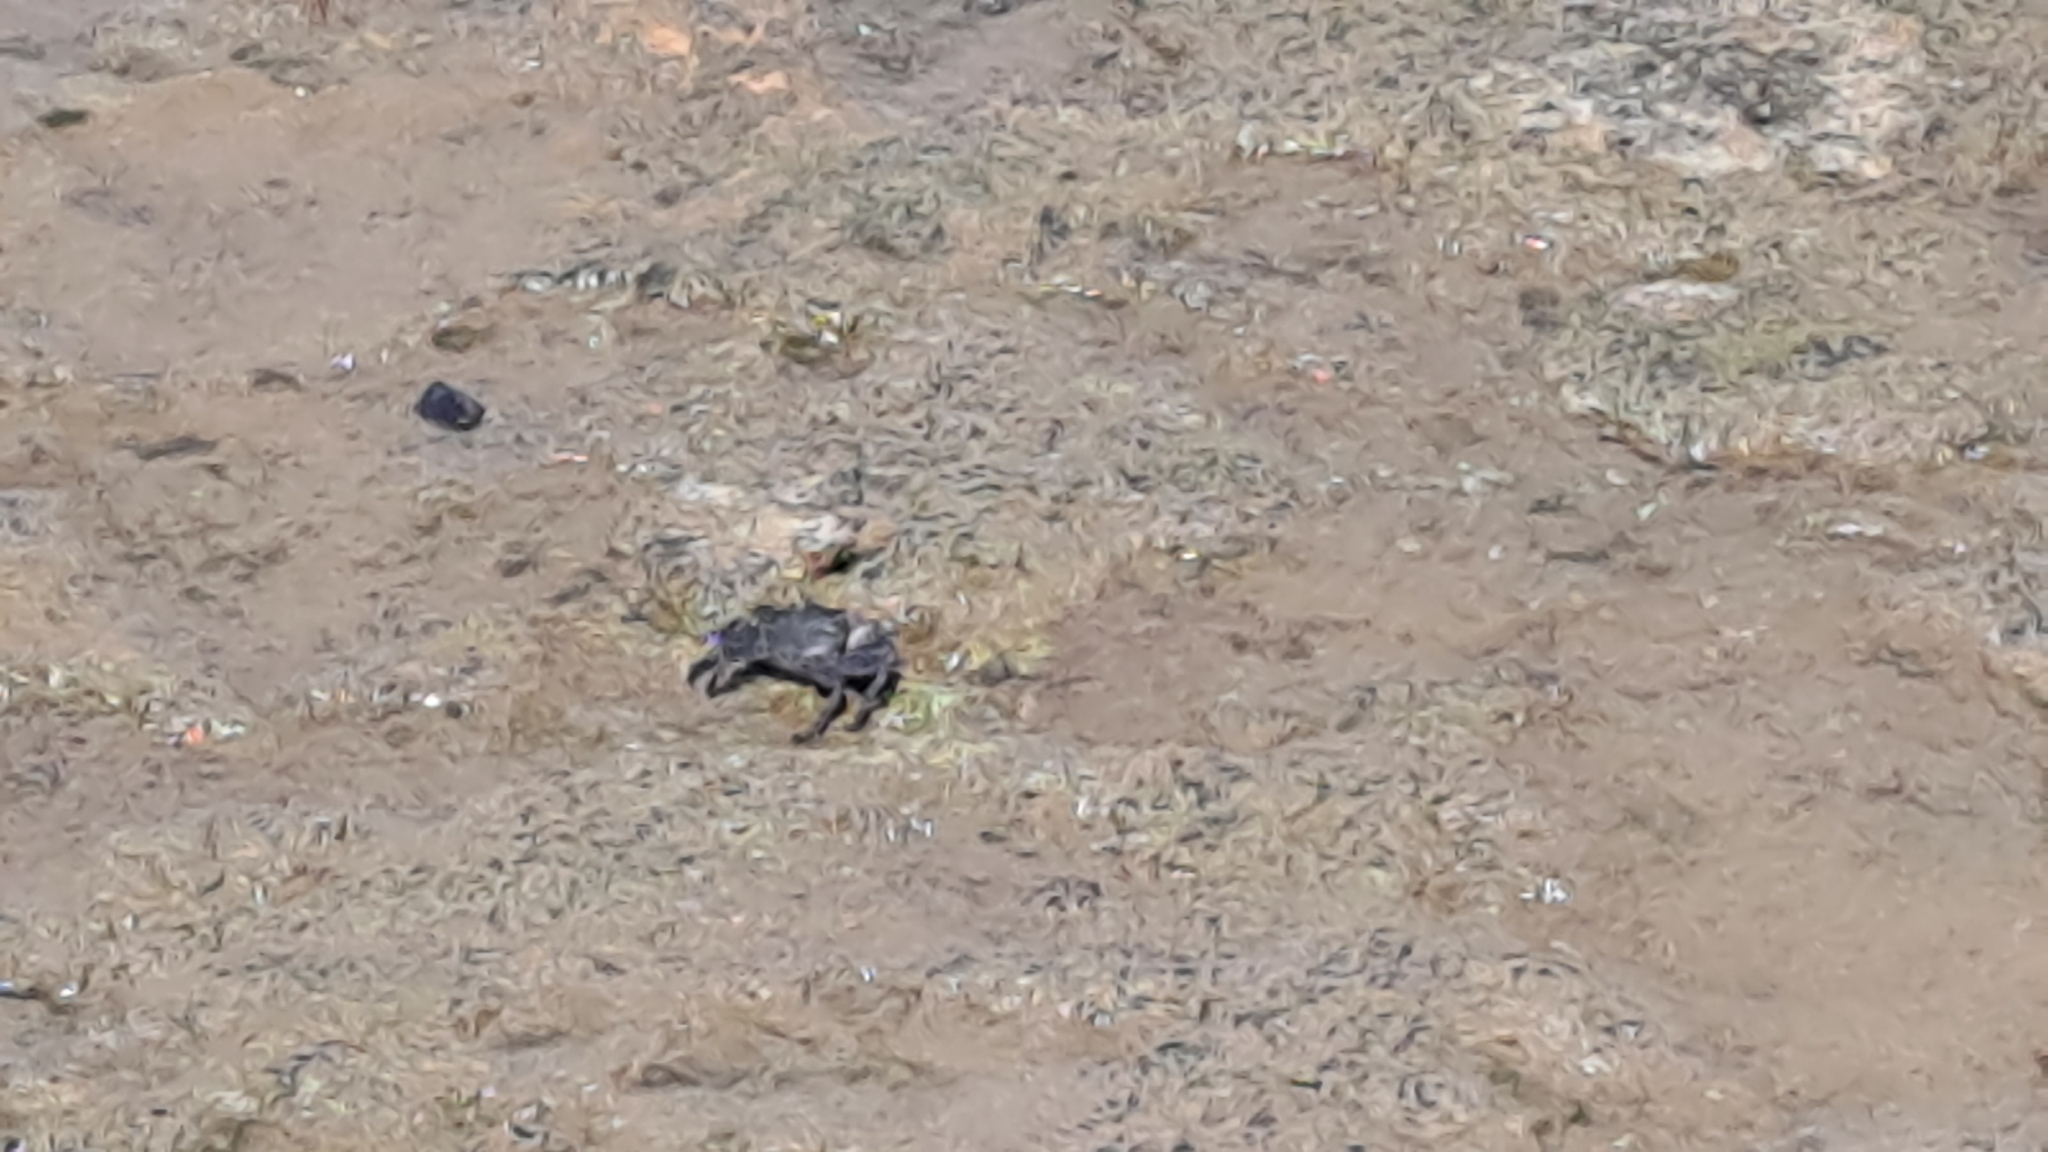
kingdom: Animalia
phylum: Arthropoda
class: Malacostraca
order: Decapoda
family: Grapsidae
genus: Grapsus
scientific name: Grapsus adscensionis
